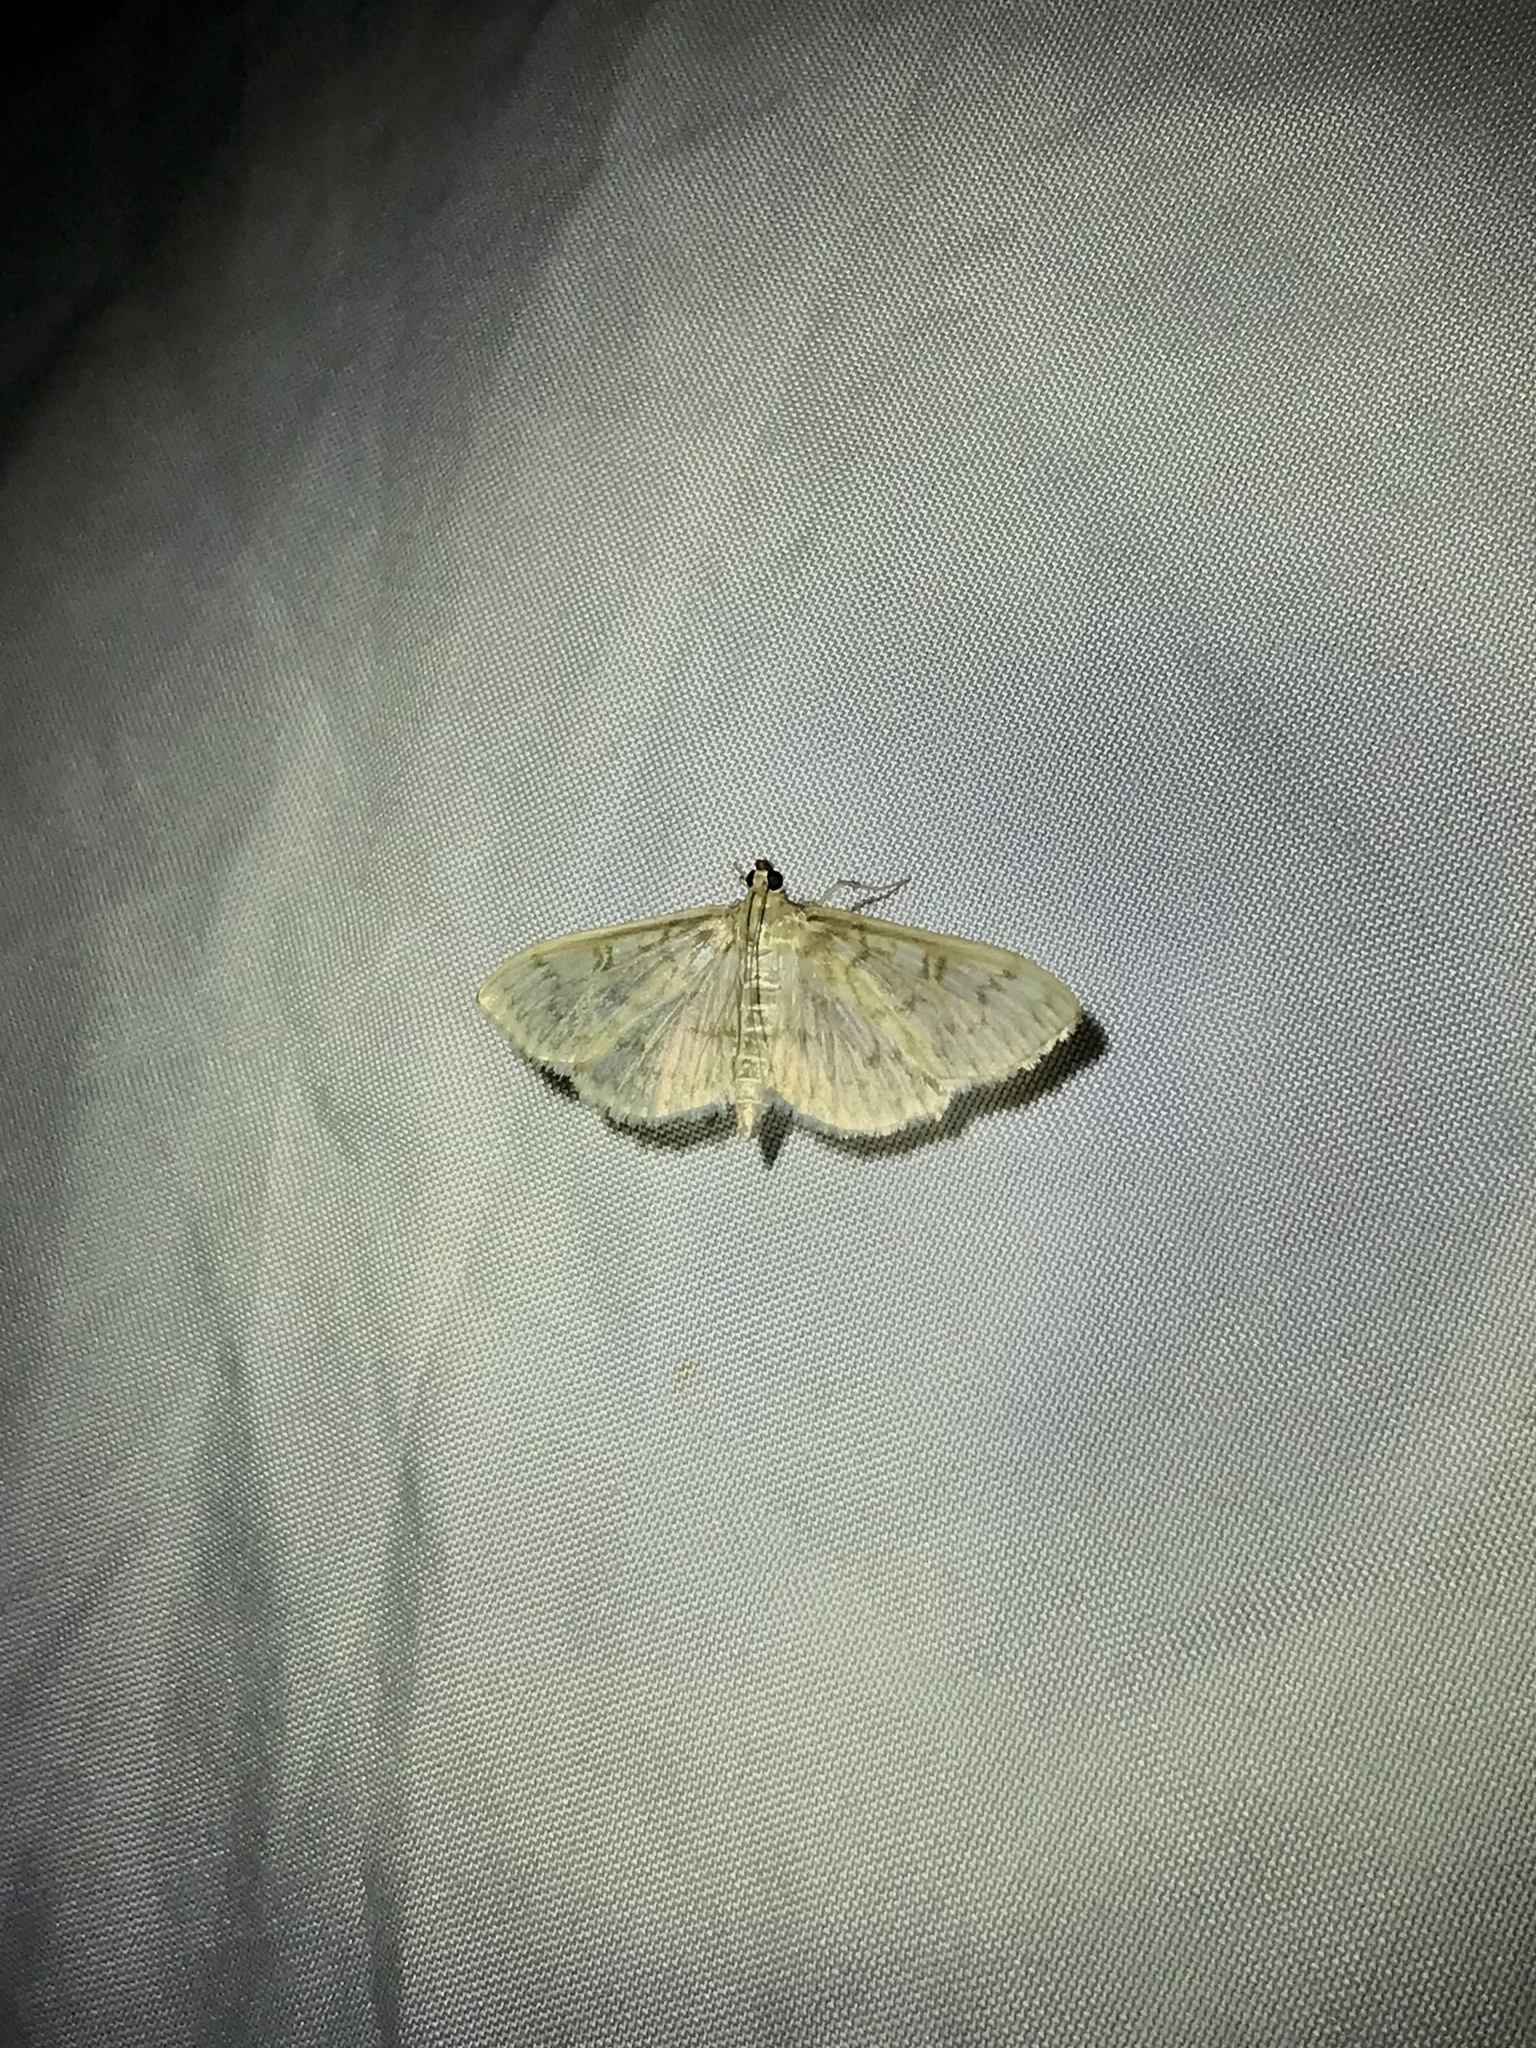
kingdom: Animalia
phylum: Arthropoda
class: Insecta
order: Lepidoptera
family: Crambidae
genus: Herpetogramma
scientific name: Herpetogramma pertextalis
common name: Bold-feathered grass moth
